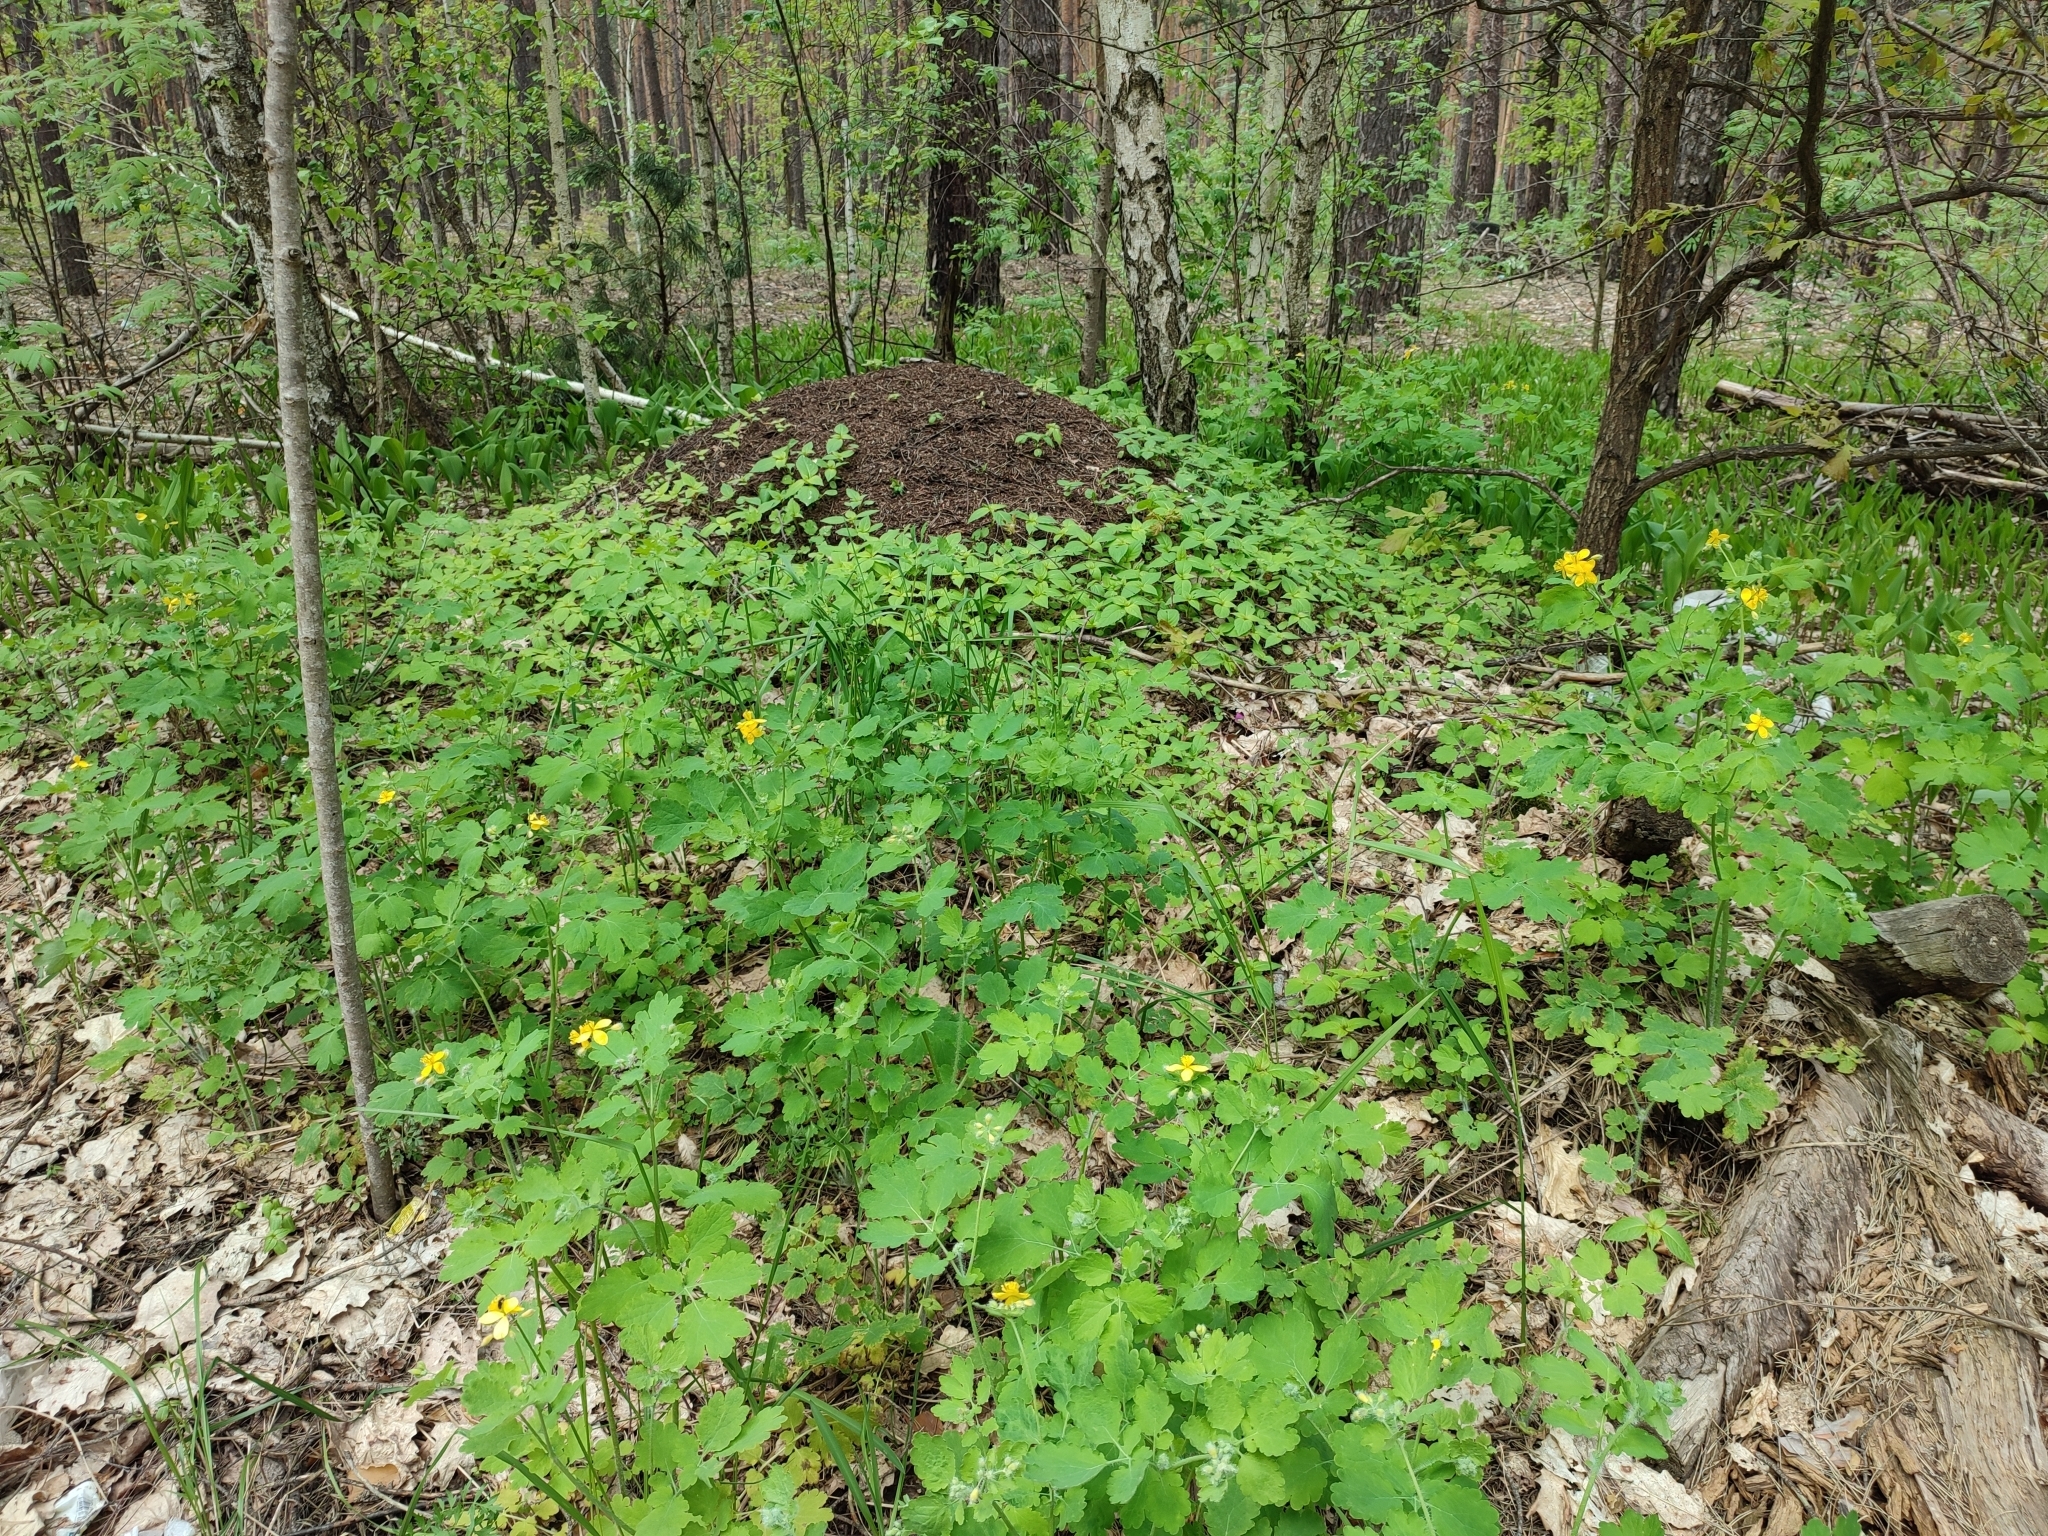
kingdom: Plantae
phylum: Tracheophyta
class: Magnoliopsida
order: Ranunculales
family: Papaveraceae
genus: Chelidonium
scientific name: Chelidonium majus
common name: Greater celandine
